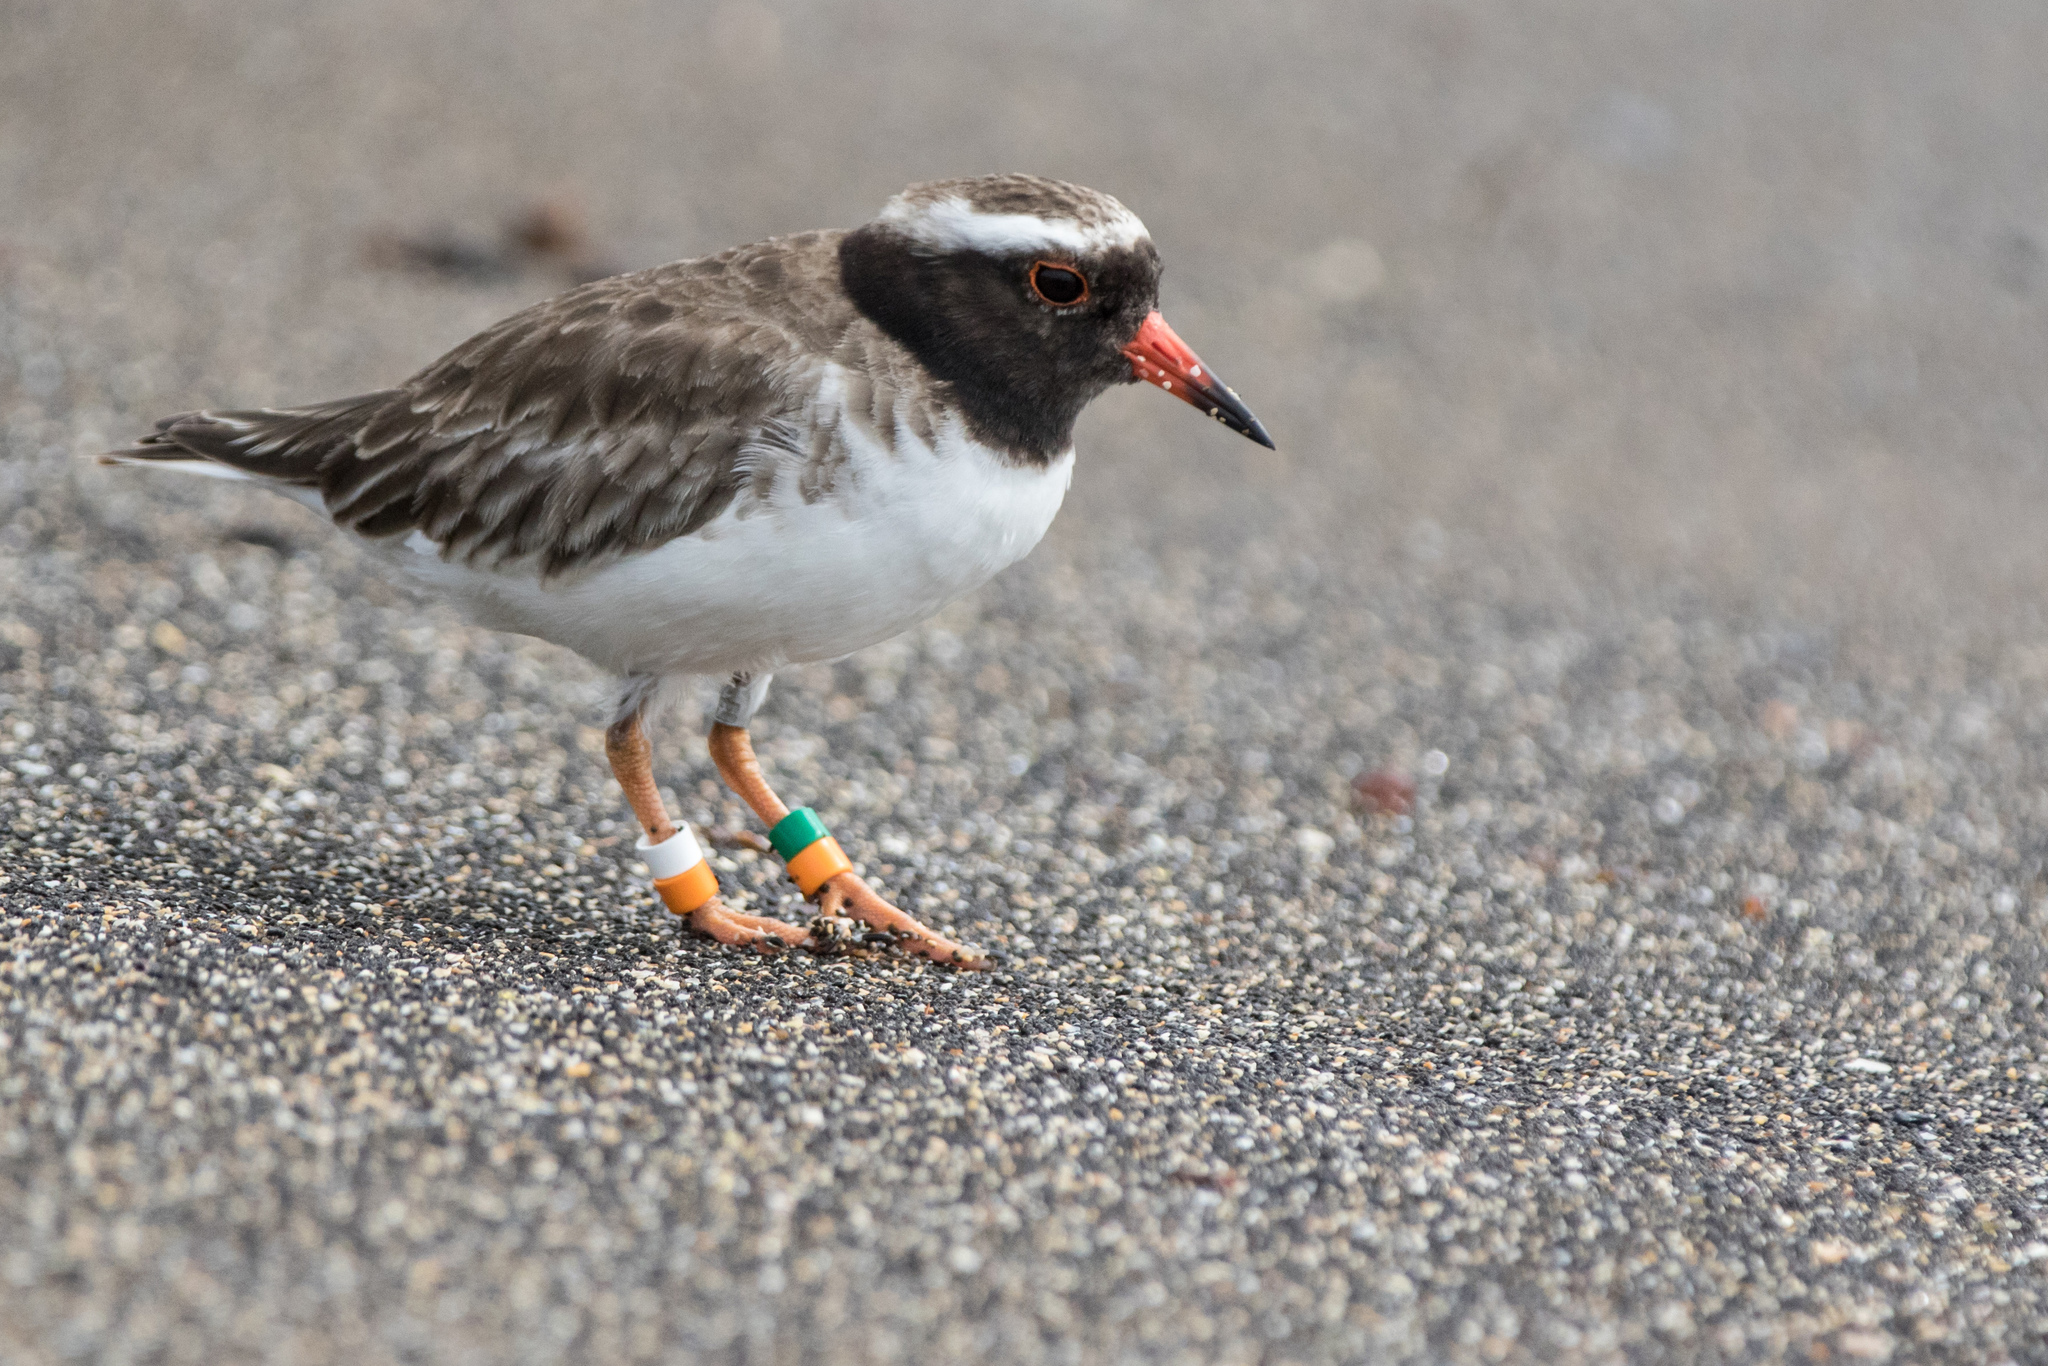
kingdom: Animalia
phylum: Chordata
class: Aves
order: Charadriiformes
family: Charadriidae
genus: Thinornis
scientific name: Thinornis novaeseelandiae
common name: Shore dotterel
